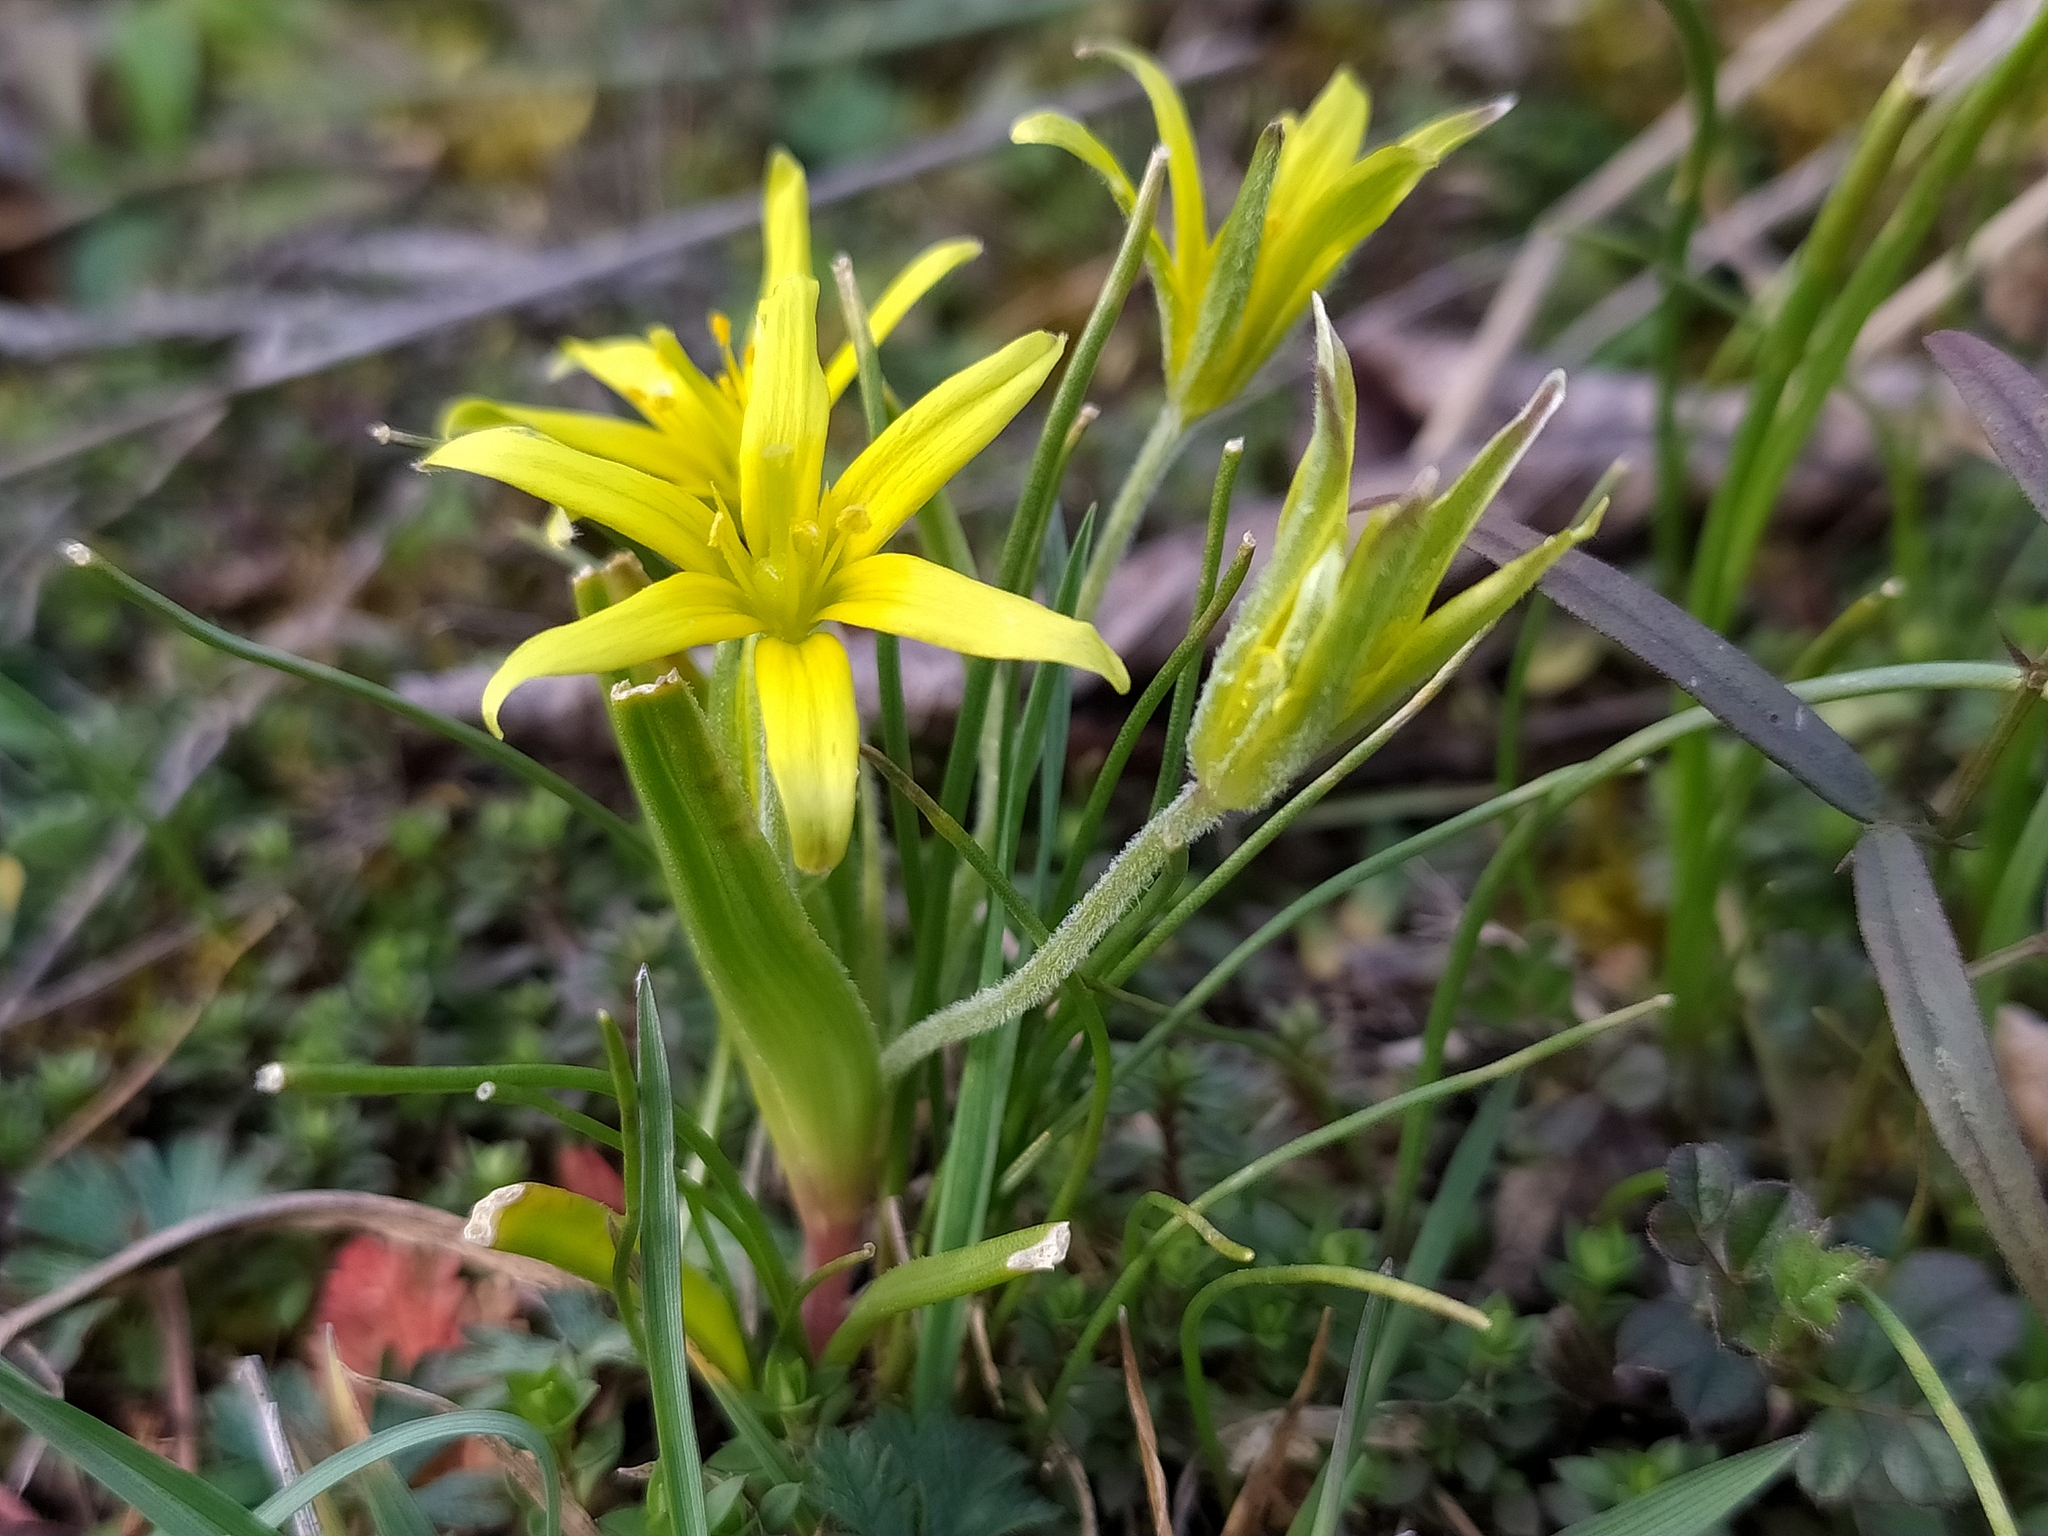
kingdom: Plantae
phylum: Tracheophyta
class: Liliopsida
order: Liliales
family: Liliaceae
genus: Gagea
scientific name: Gagea villosa
